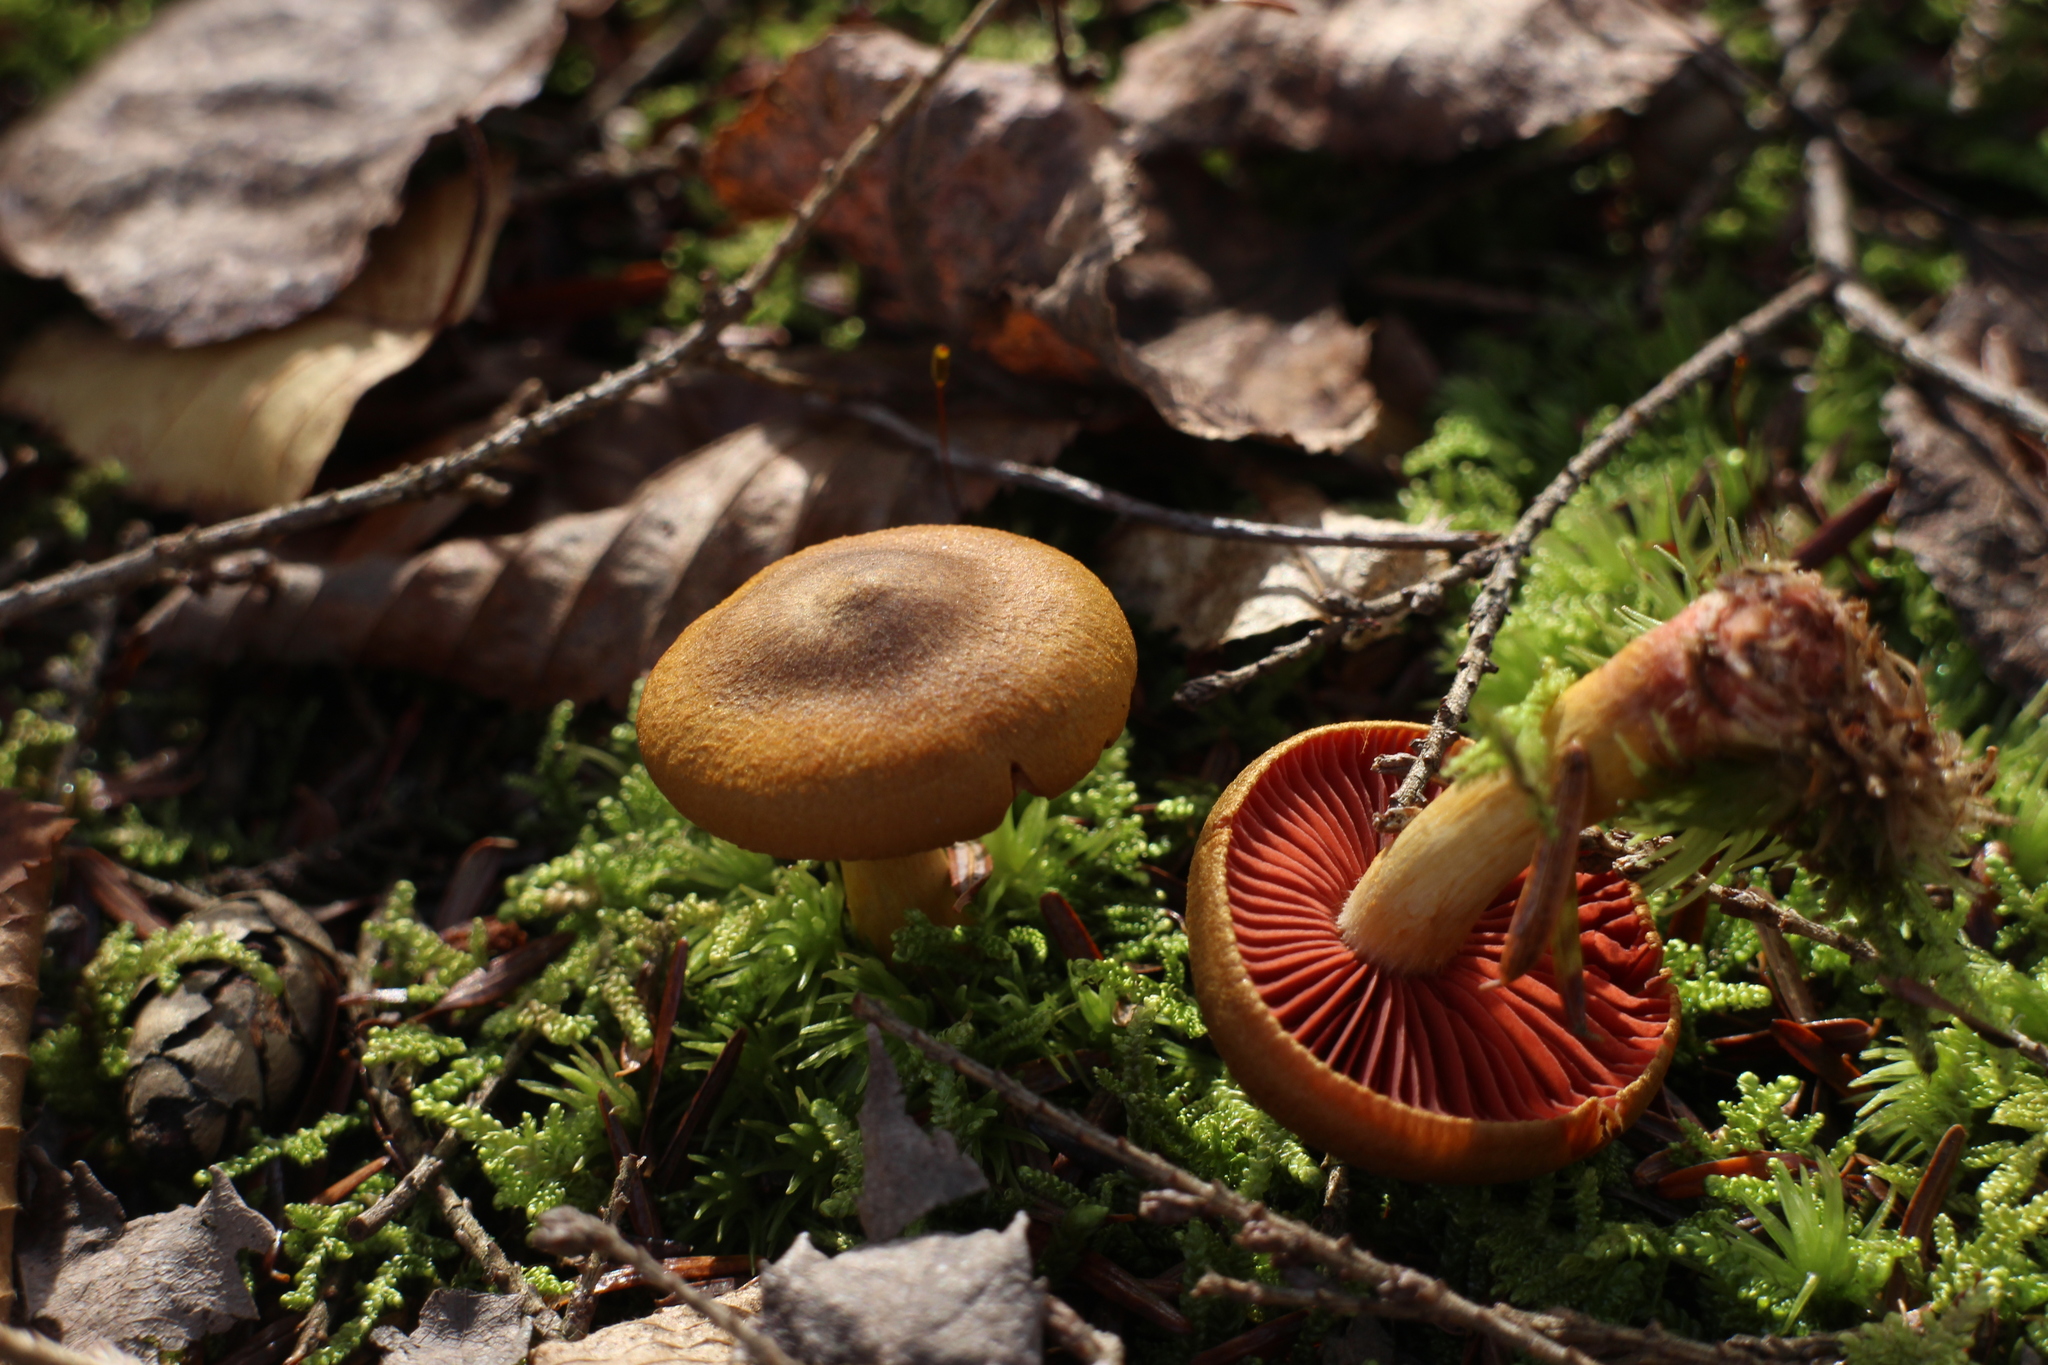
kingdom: Fungi
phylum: Basidiomycota
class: Agaricomycetes
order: Agaricales
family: Cortinariaceae
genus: Cortinarius
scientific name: Cortinarius semisanguineus
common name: Surprise webcap
